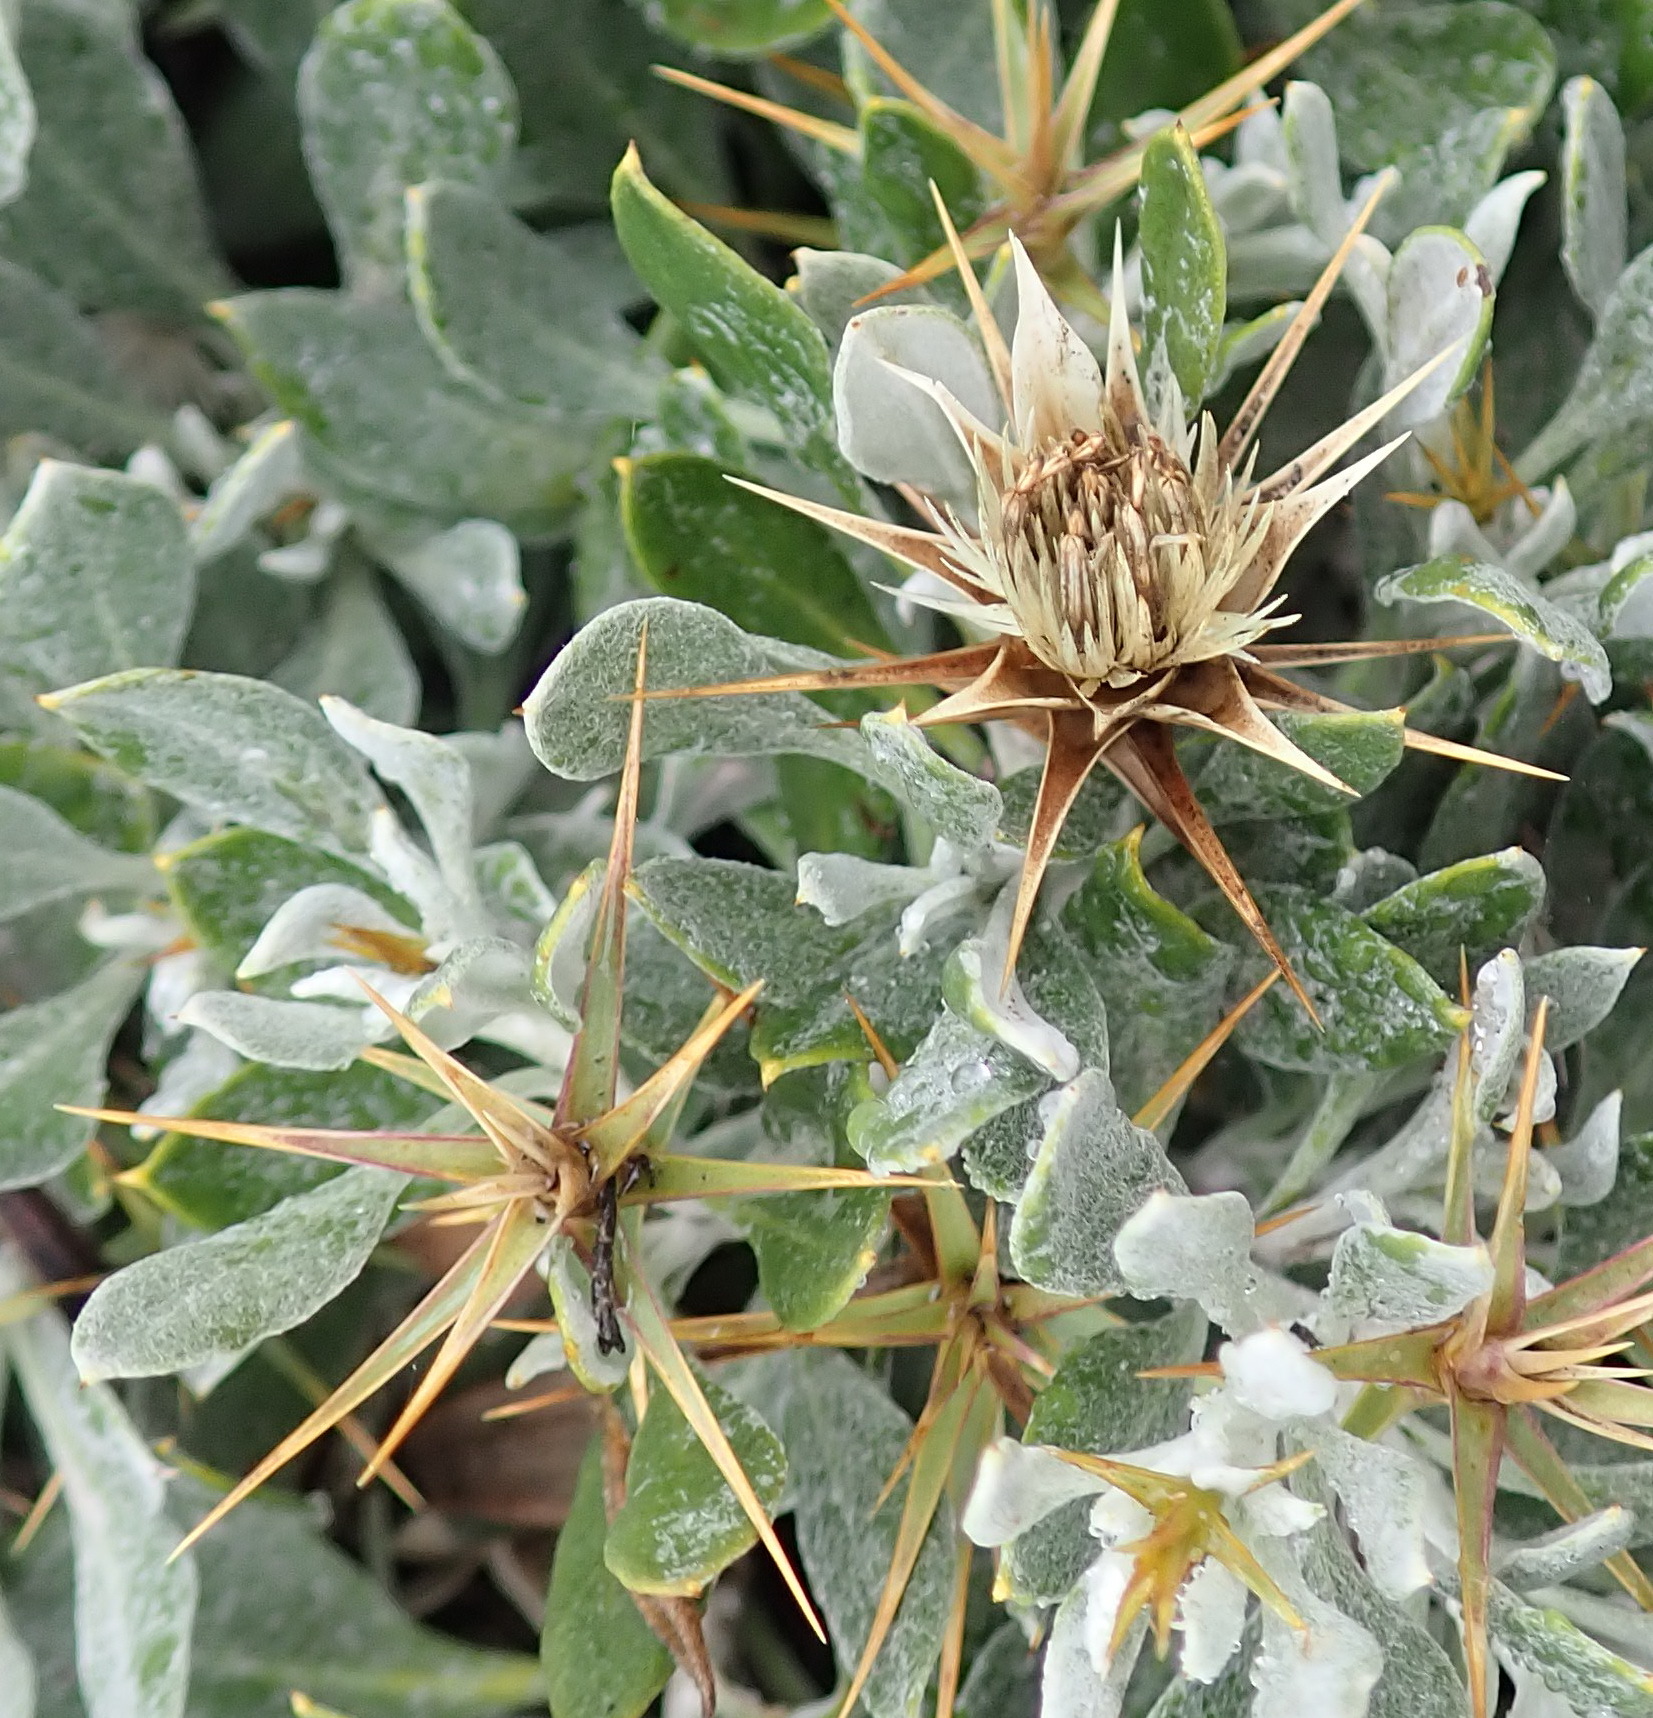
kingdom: Plantae
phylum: Tracheophyta
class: Magnoliopsida
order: Asterales
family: Asteraceae
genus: Macledium
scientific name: Macledium spinosum
